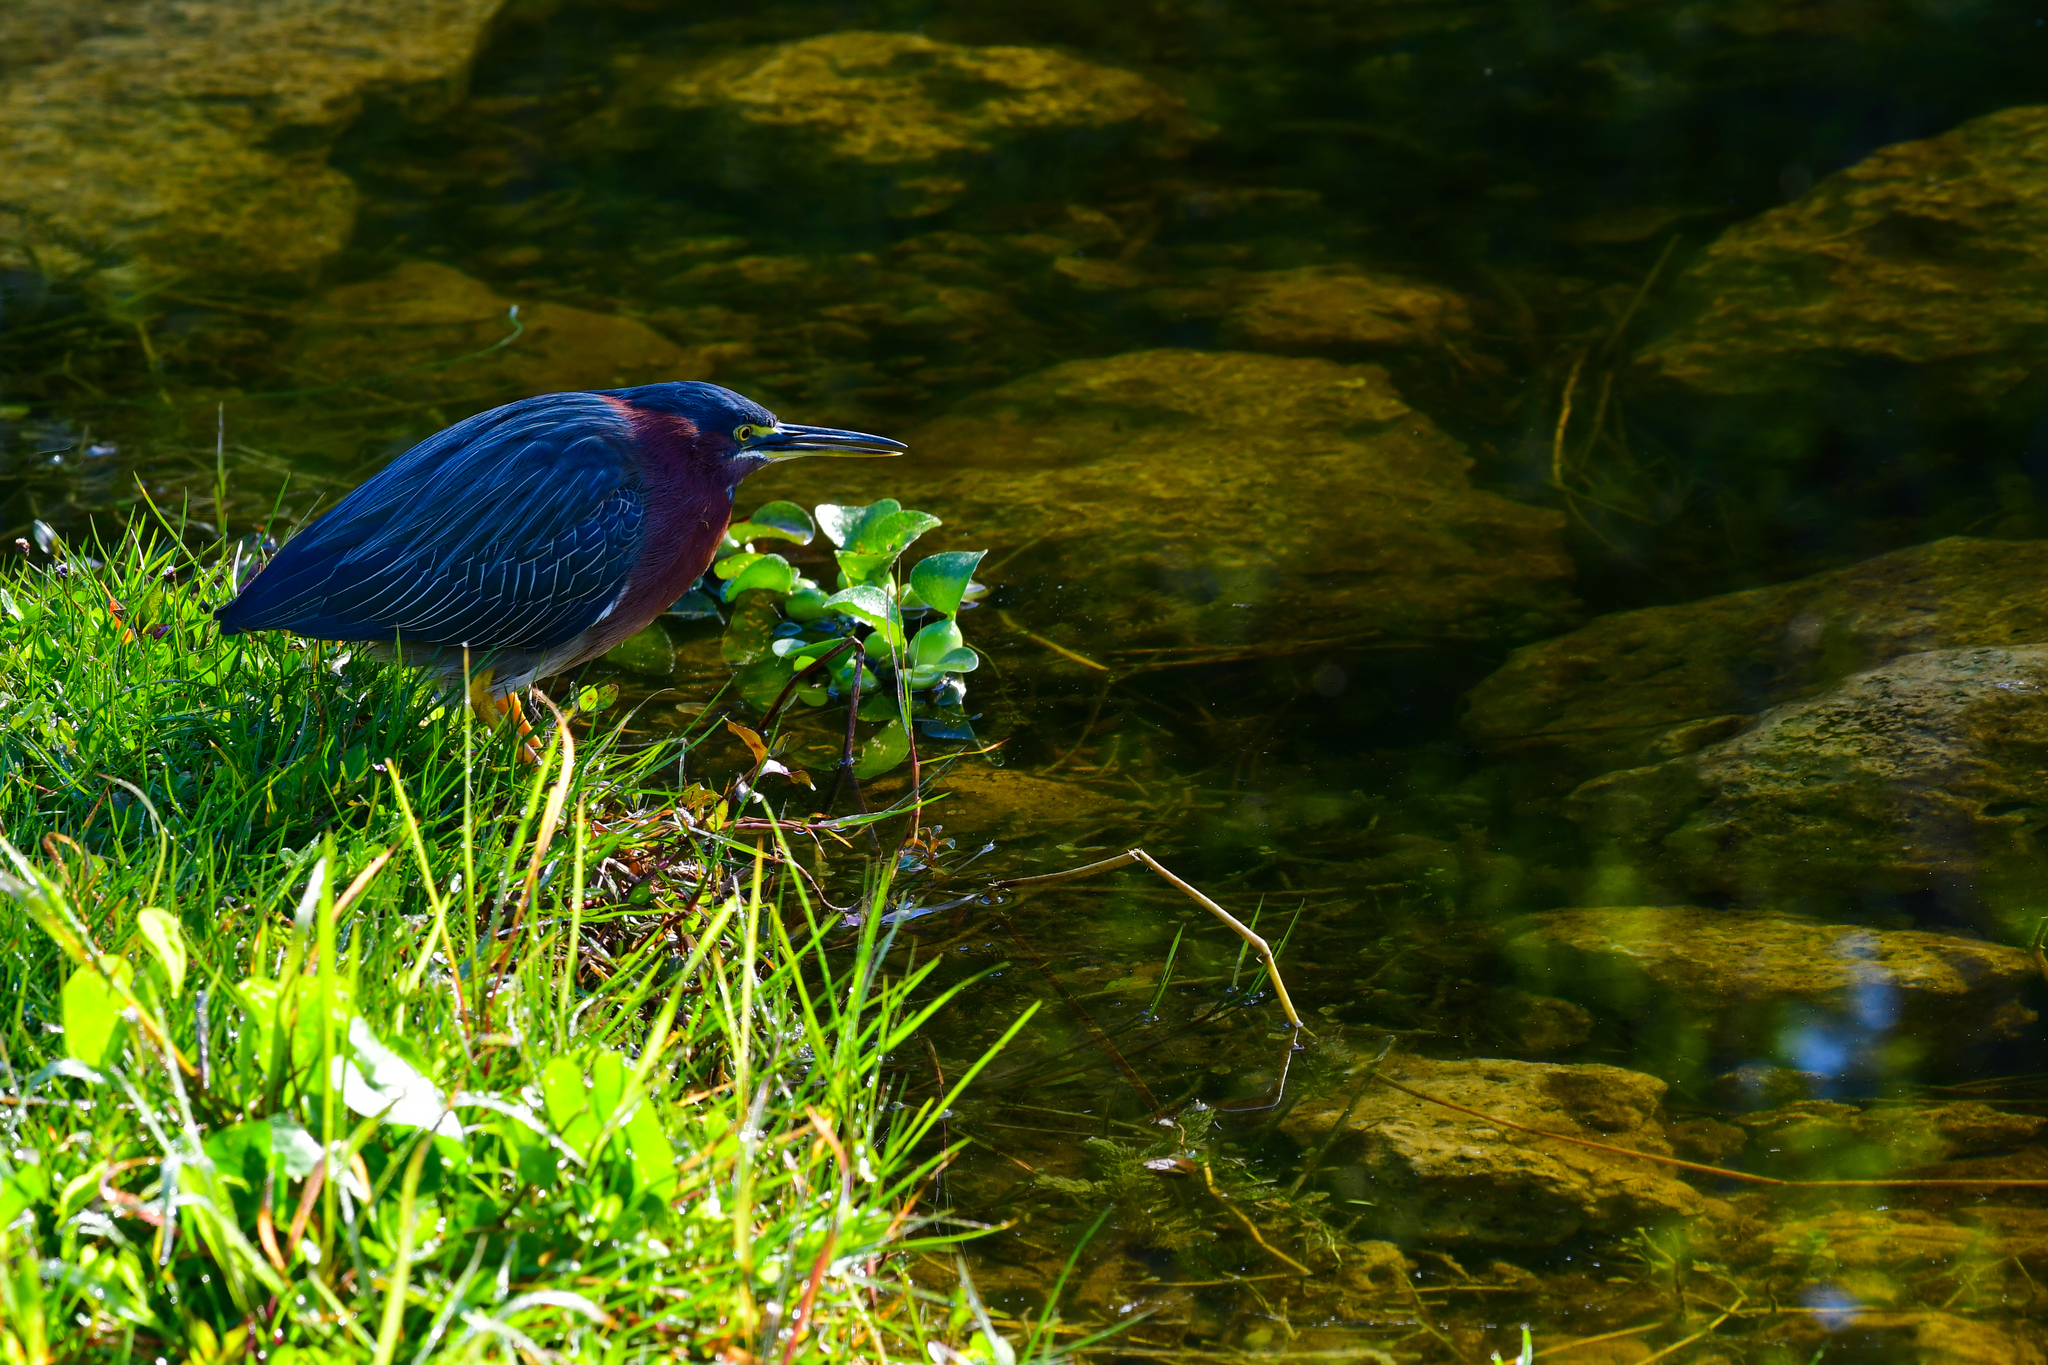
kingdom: Animalia
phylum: Chordata
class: Aves
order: Pelecaniformes
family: Ardeidae
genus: Butorides
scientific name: Butorides virescens
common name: Green heron
